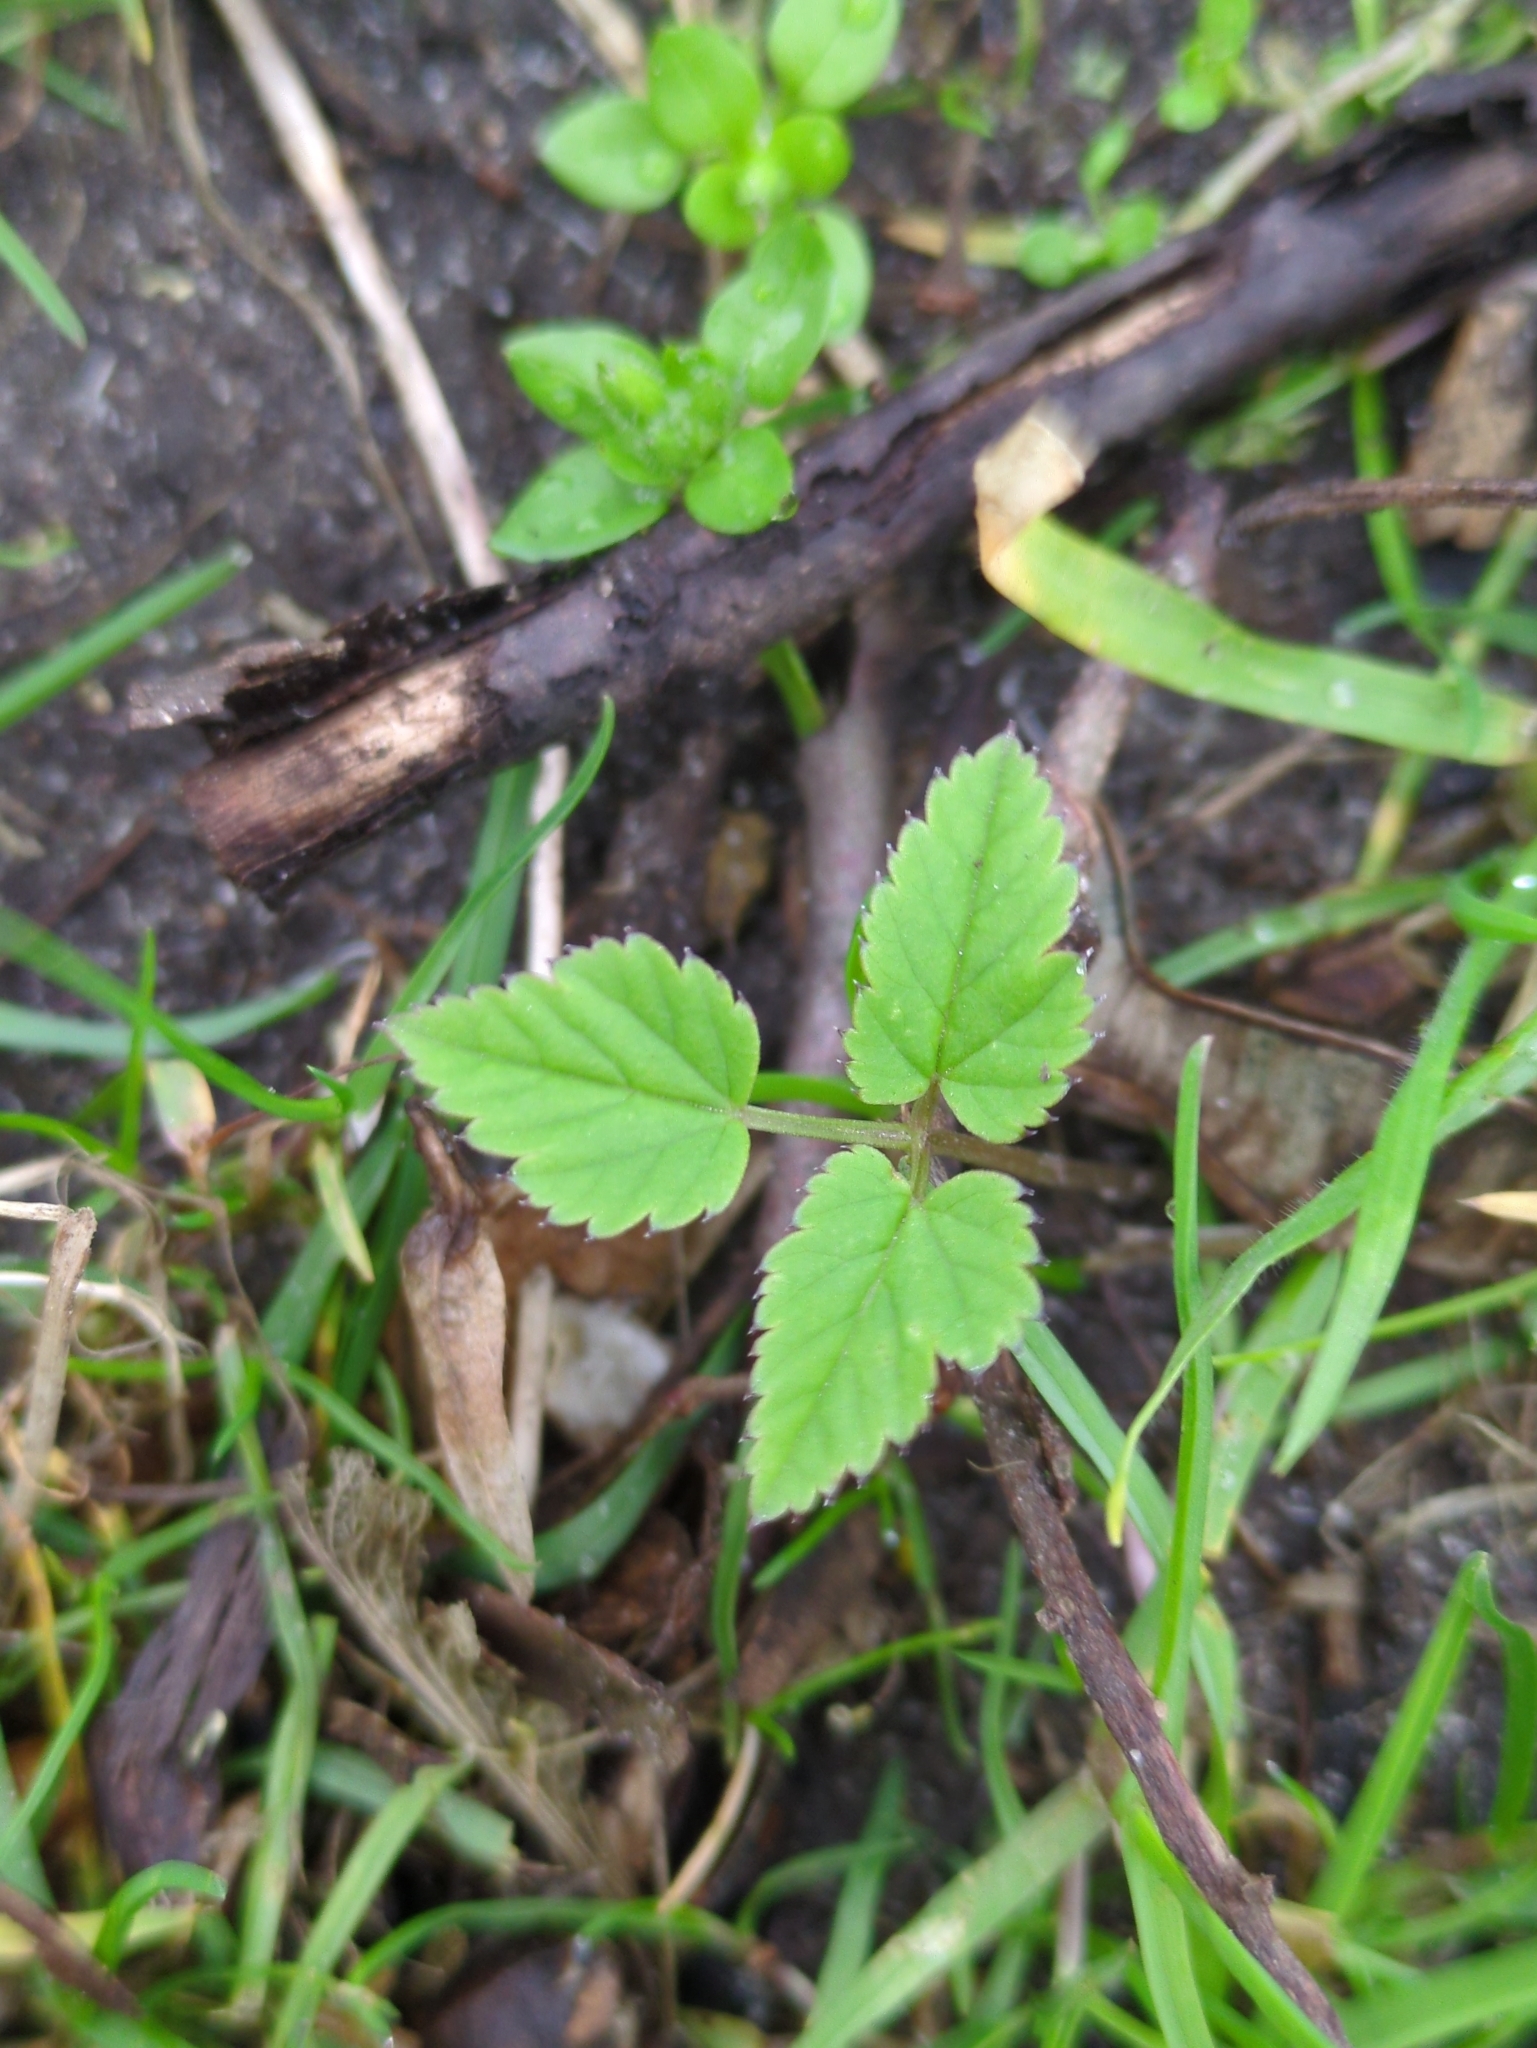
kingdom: Plantae
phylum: Tracheophyta
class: Magnoliopsida
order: Apiales
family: Apiaceae
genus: Aegopodium
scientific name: Aegopodium podagraria
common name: Ground-elder
